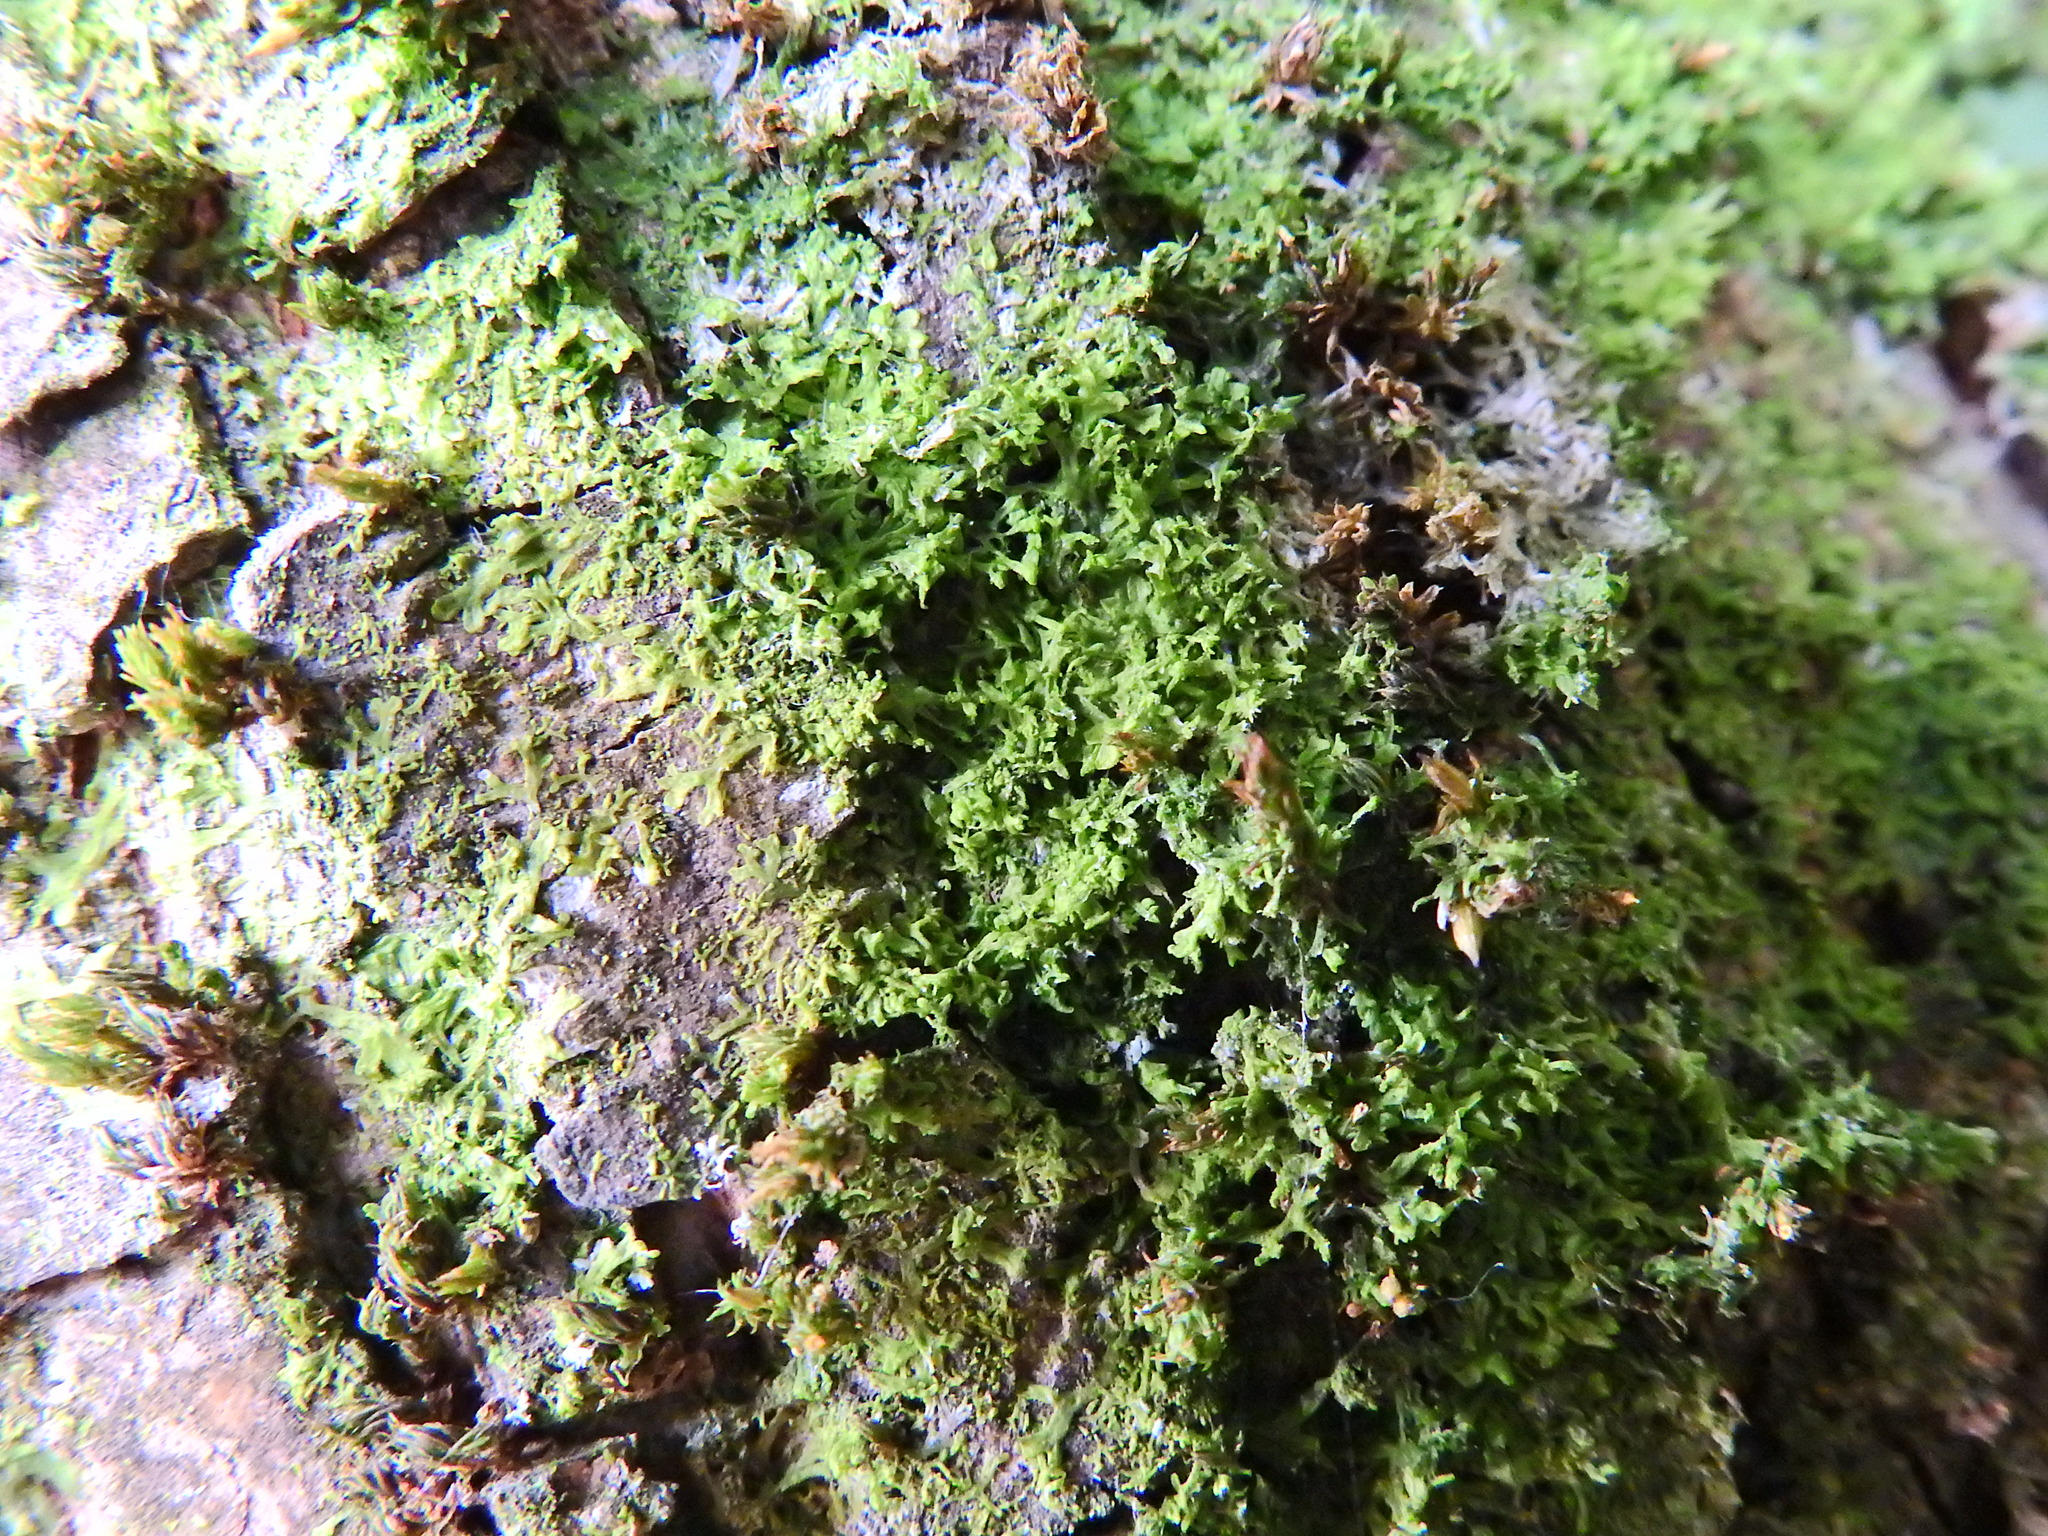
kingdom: Plantae
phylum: Marchantiophyta
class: Jungermanniopsida
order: Metzgeriales
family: Metzgeriaceae
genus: Metzgeria
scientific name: Metzgeria violacea
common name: Blueish veilwort
